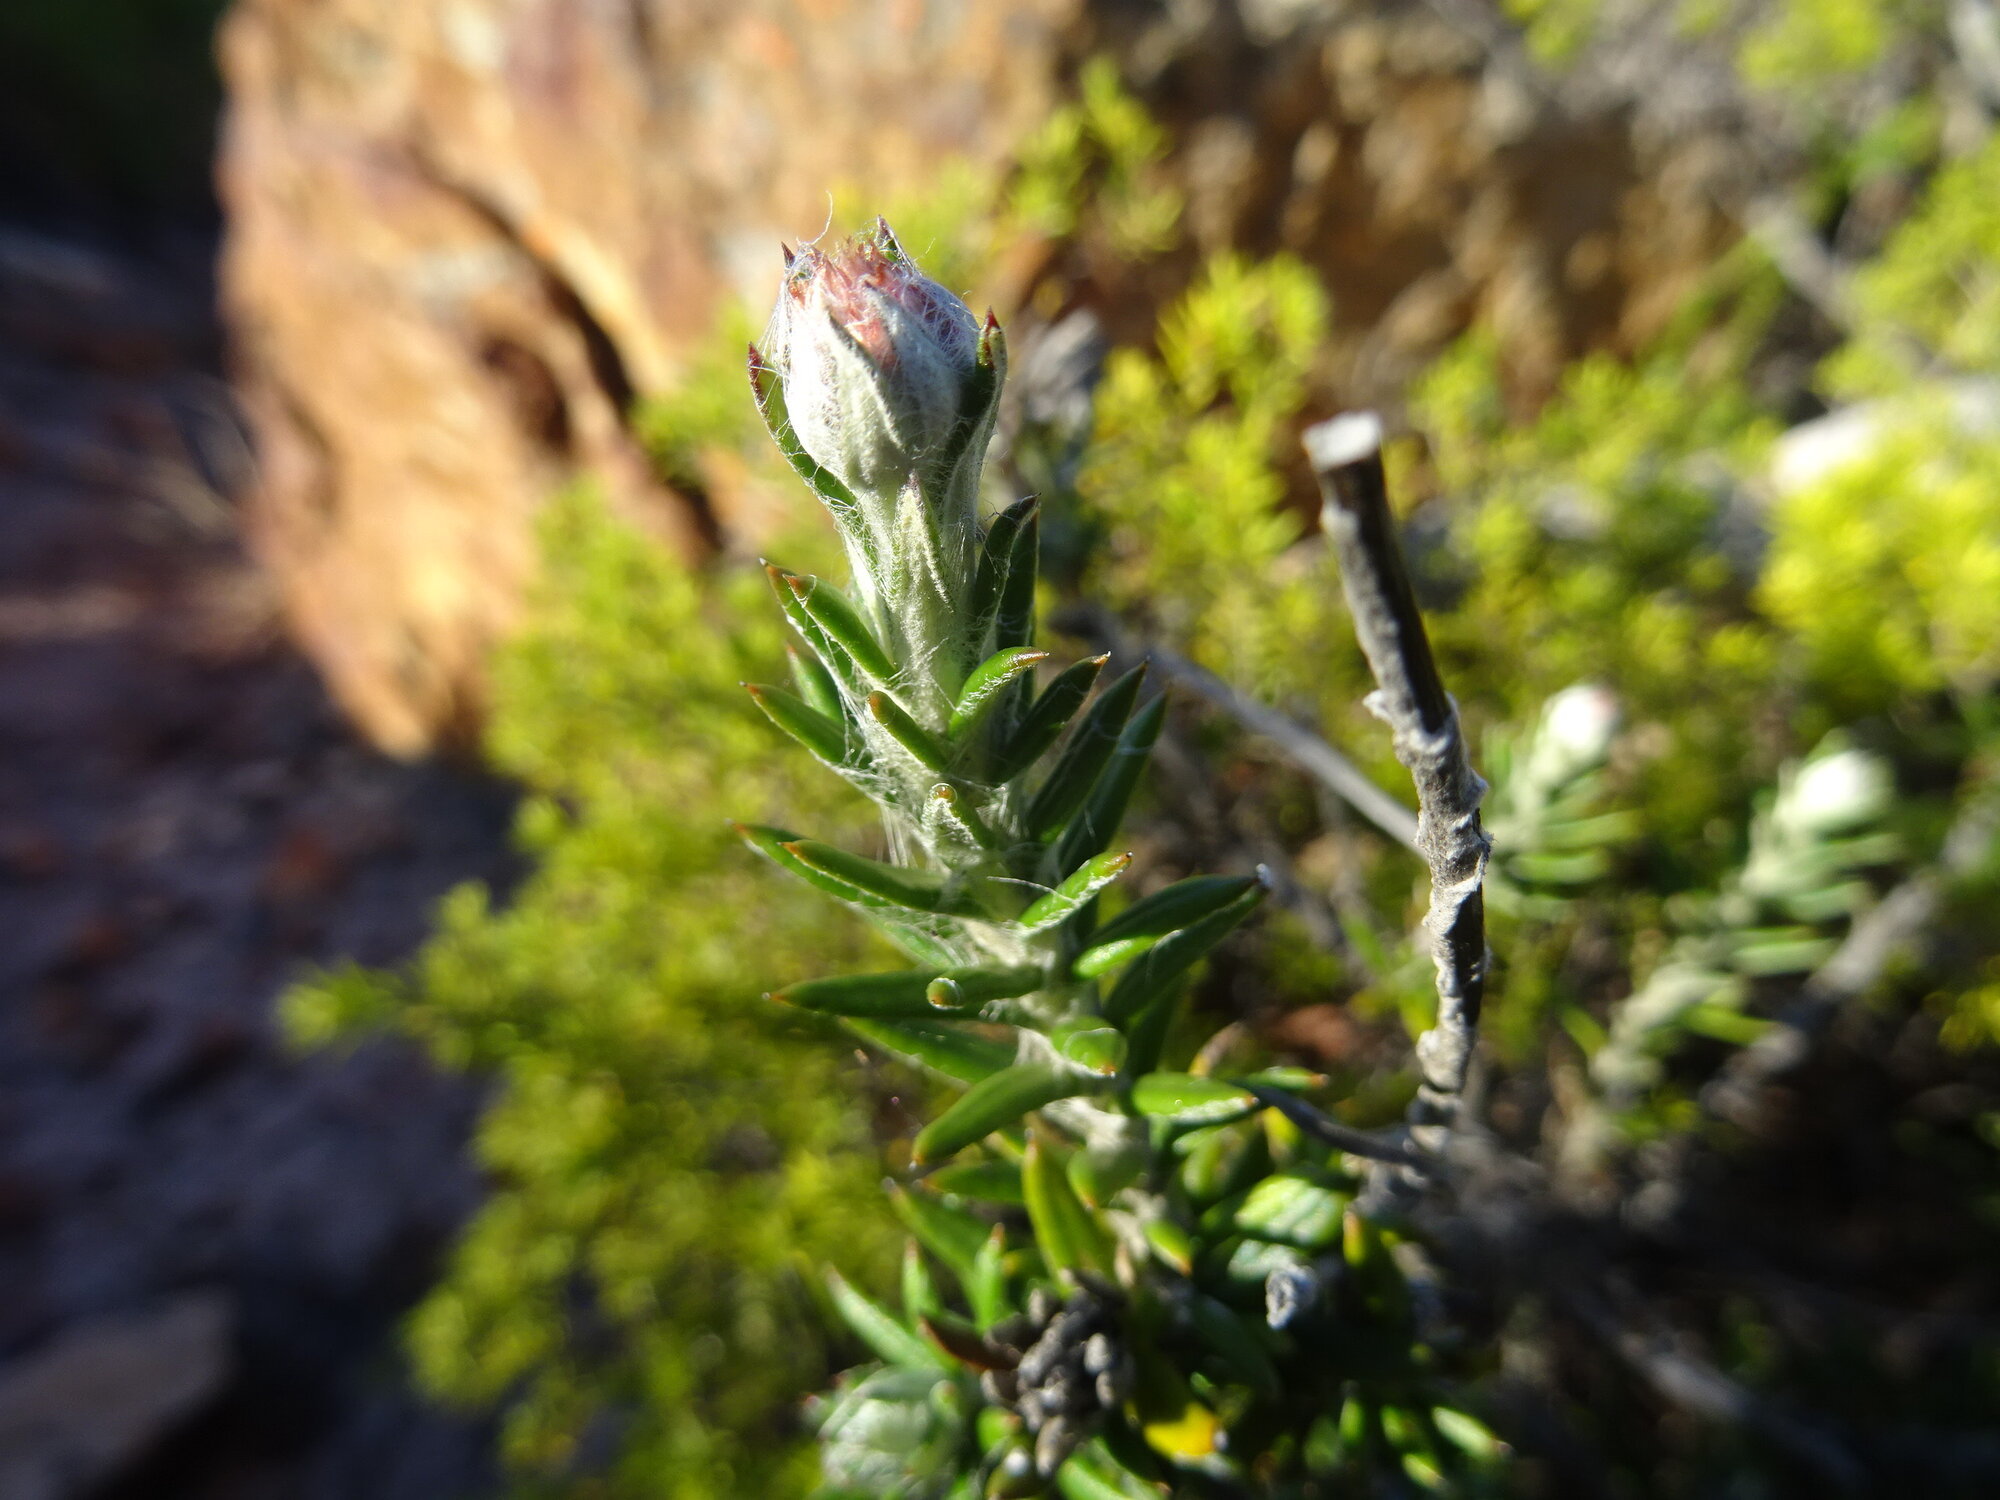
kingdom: Plantae
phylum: Tracheophyta
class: Magnoliopsida
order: Asterales
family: Asteraceae
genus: Anaxeton
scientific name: Anaxeton laeve
